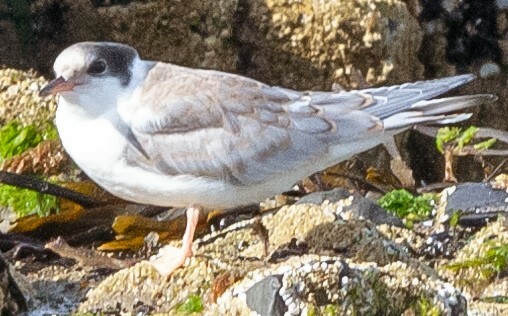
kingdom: Animalia
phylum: Chordata
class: Aves
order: Charadriiformes
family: Laridae
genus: Sterna
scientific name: Sterna hirundo
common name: Common tern
